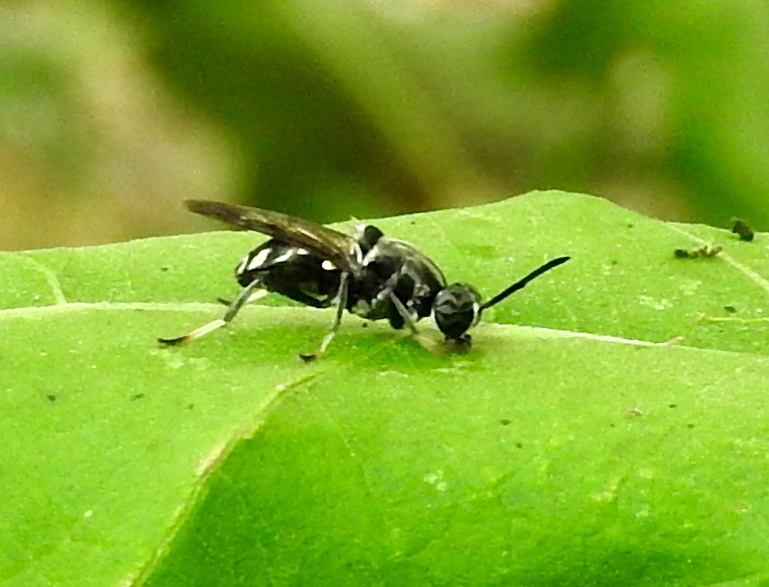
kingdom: Animalia
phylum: Arthropoda
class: Insecta
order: Diptera
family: Stratiomyidae
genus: Cyphomyia
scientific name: Cyphomyia
